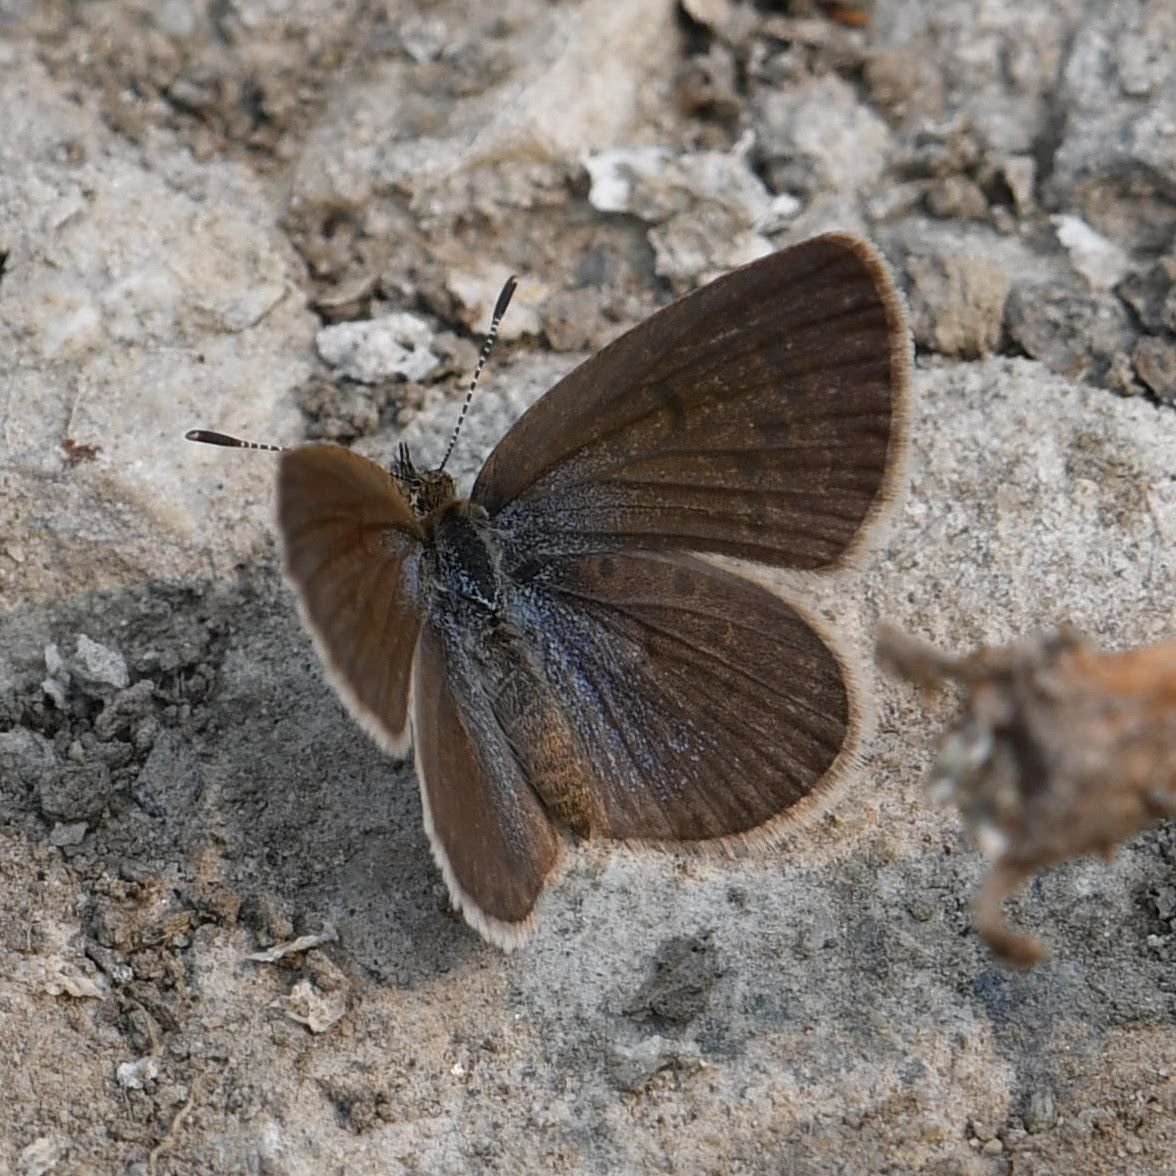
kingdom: Animalia
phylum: Arthropoda
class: Insecta
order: Lepidoptera
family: Lycaenidae
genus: Zizeeria
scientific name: Zizeeria karsandra
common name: Dark grass blue
